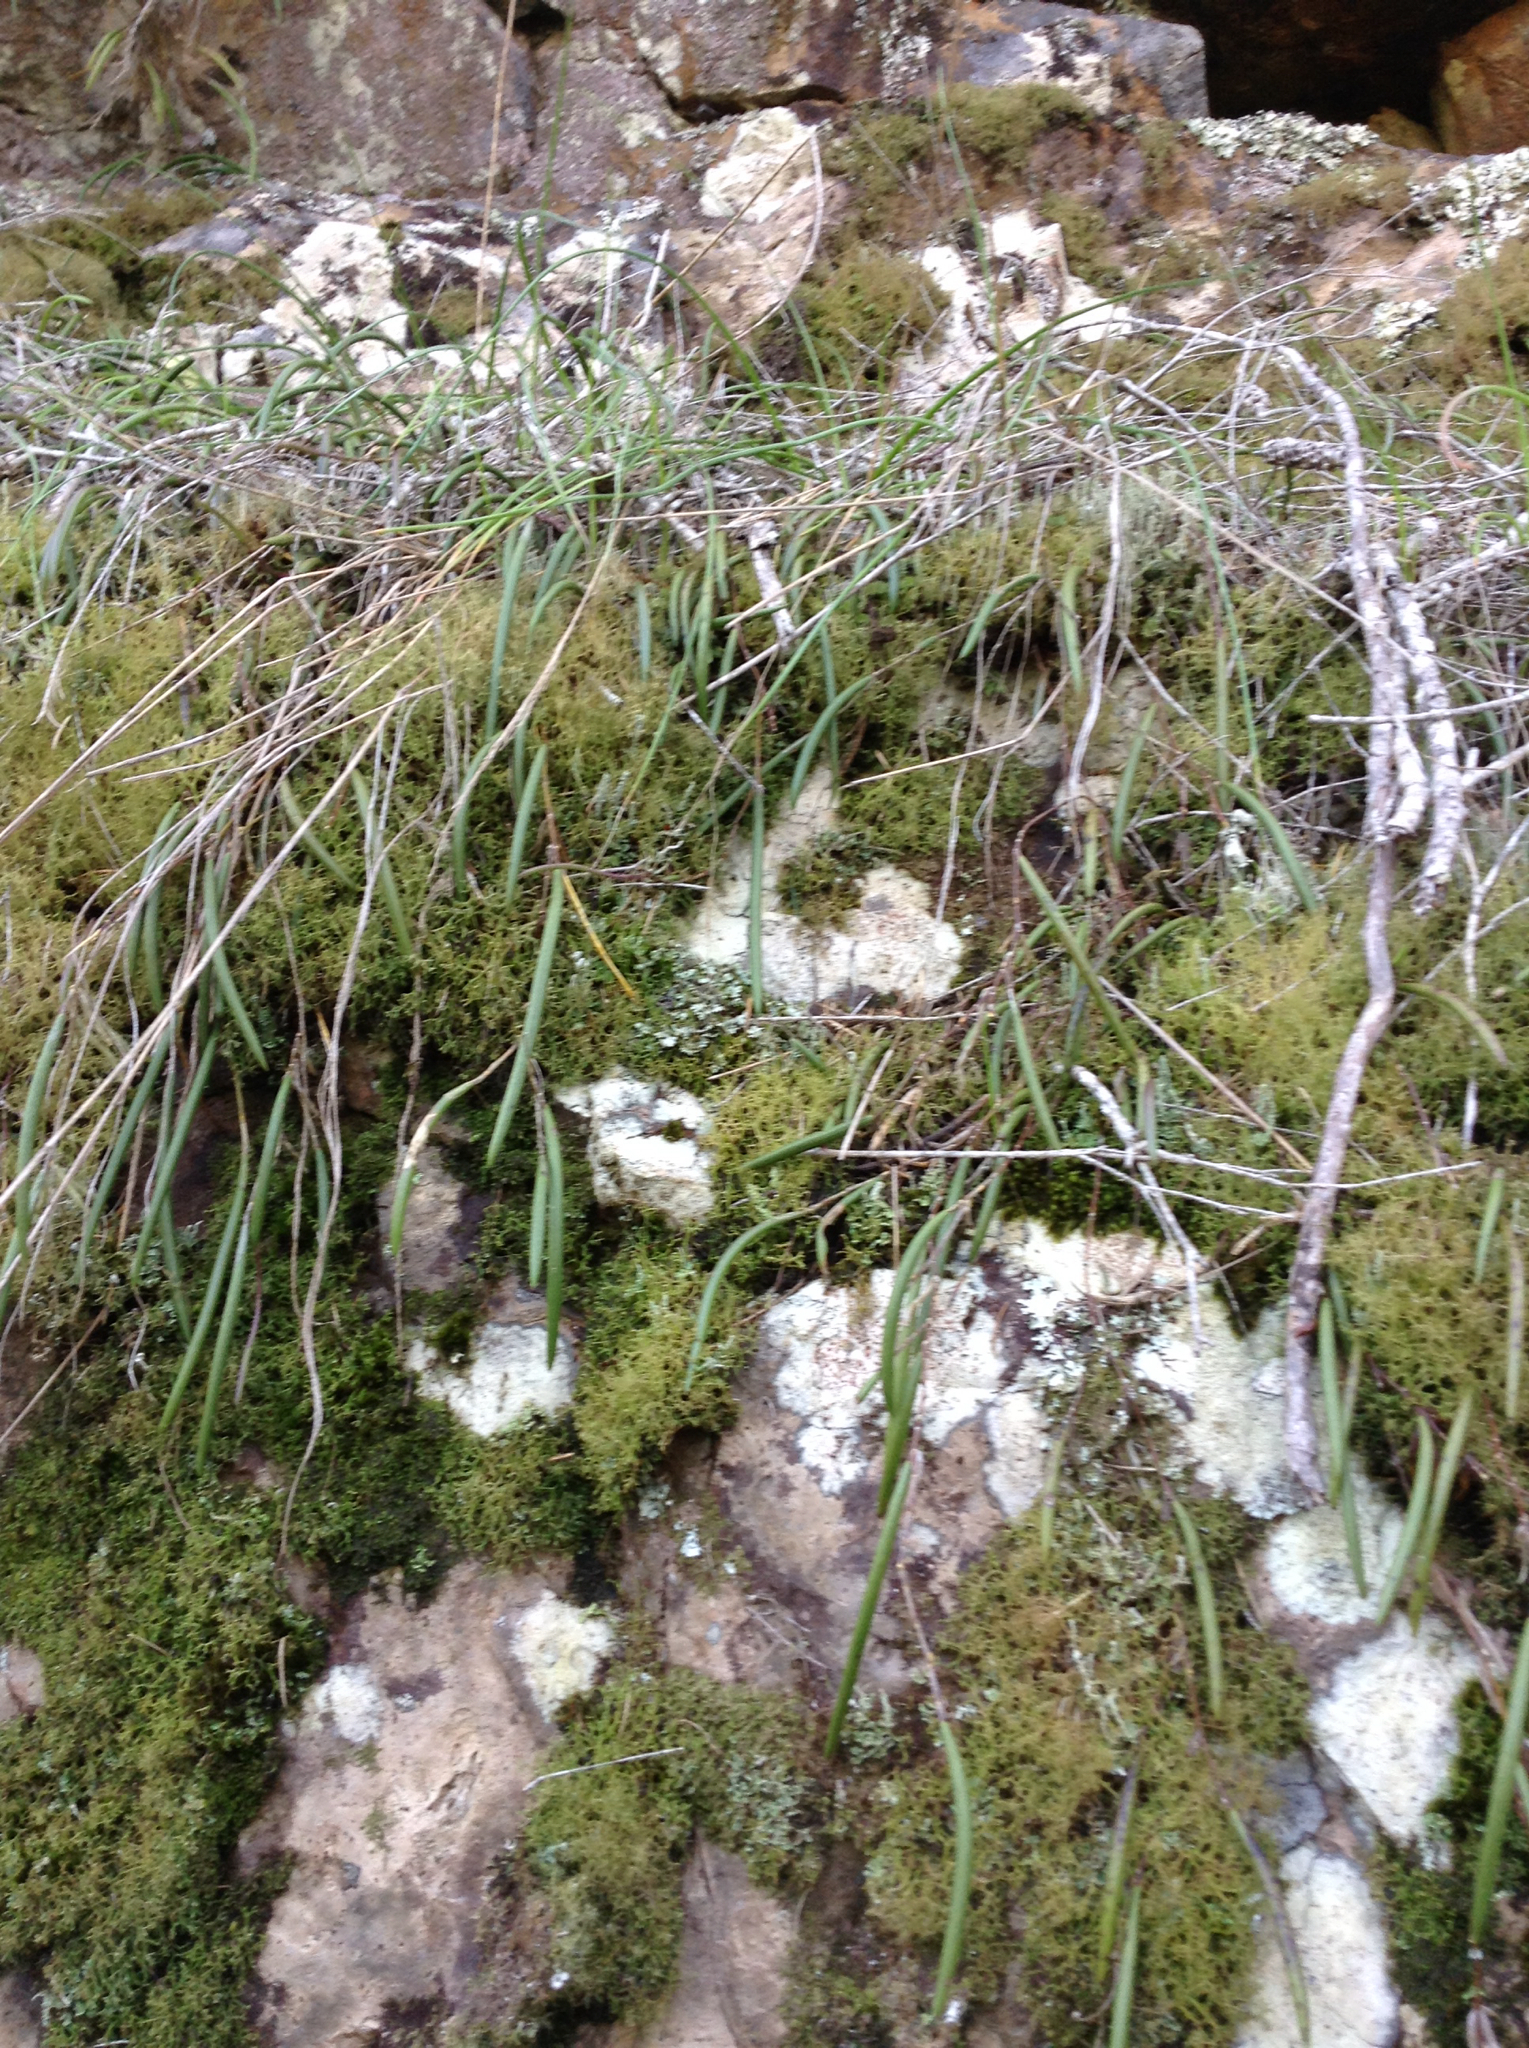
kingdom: Plantae
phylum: Tracheophyta
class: Liliopsida
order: Asparagales
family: Orchidaceae
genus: Dendrobium
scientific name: Dendrobium striolatum
